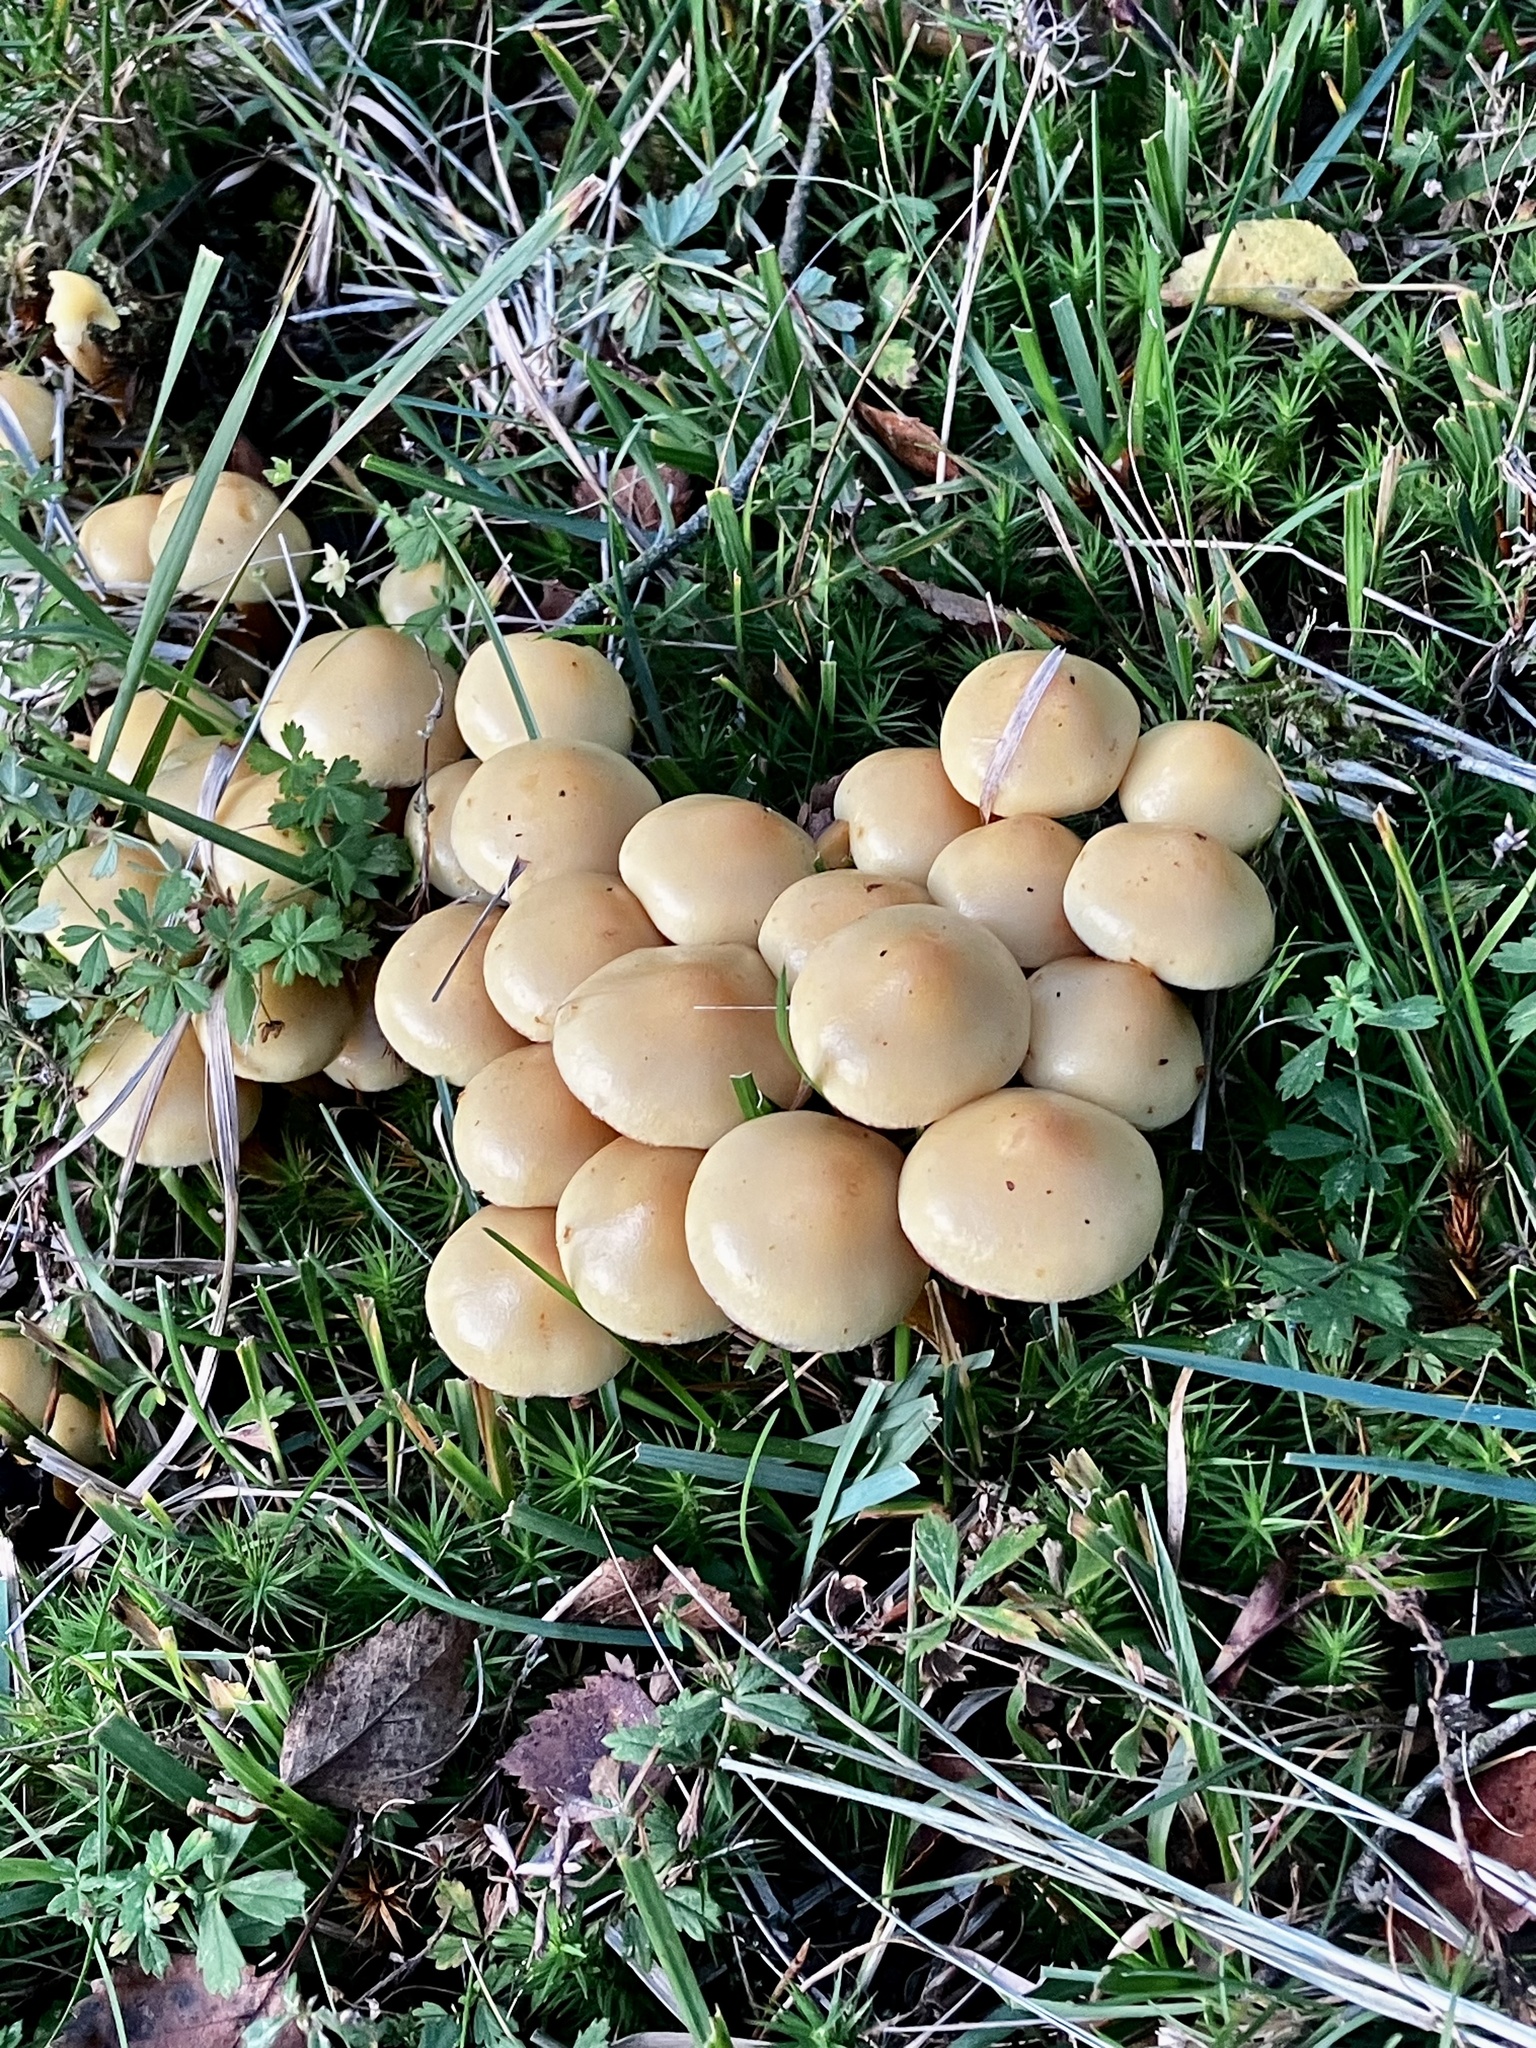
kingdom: Fungi
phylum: Basidiomycota
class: Agaricomycetes
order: Agaricales
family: Strophariaceae
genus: Hypholoma
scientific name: Hypholoma fasciculare
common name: Sulphur tuft
